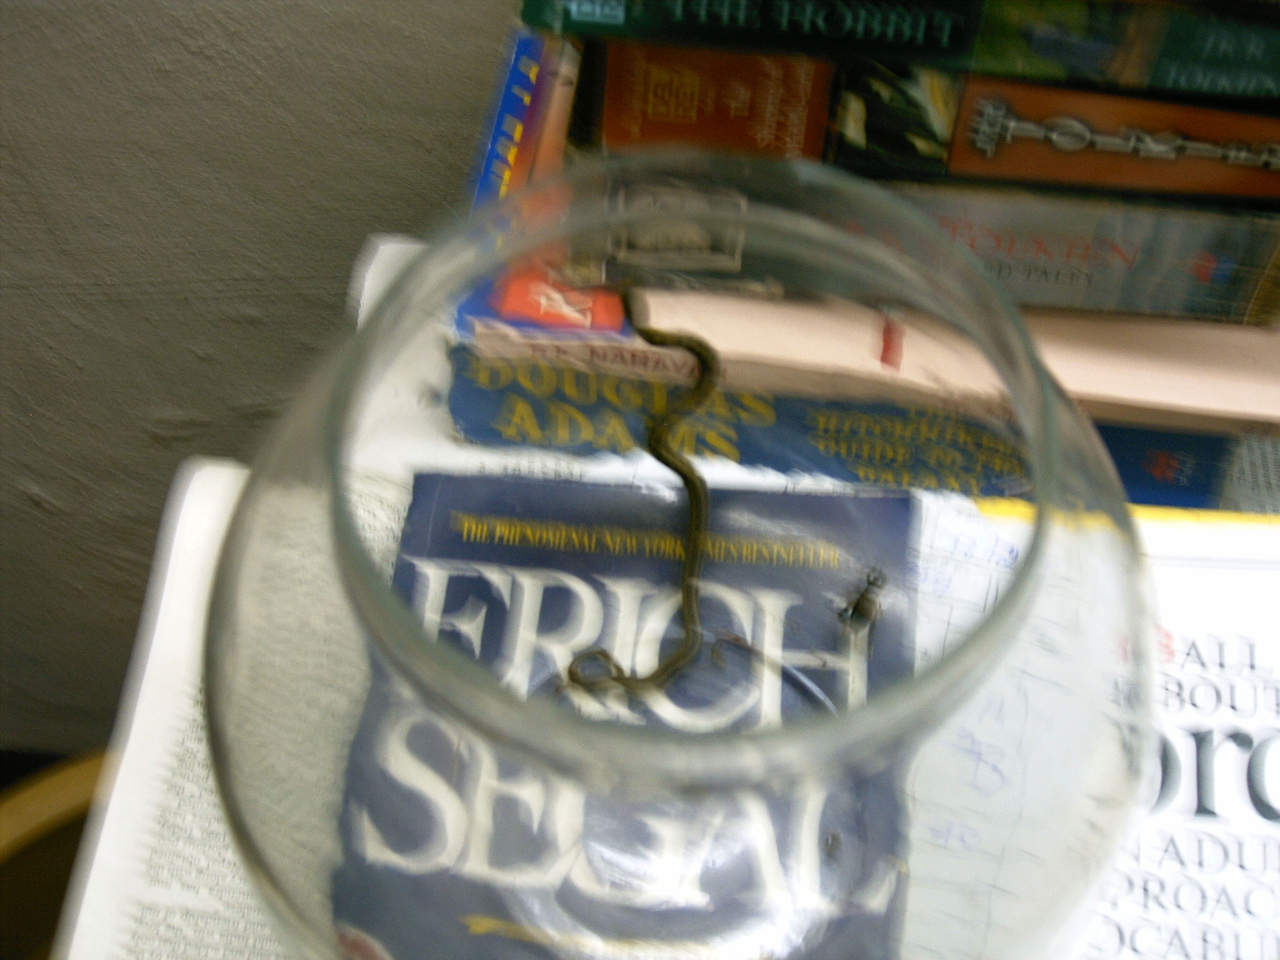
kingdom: Animalia
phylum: Chordata
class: Squamata
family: Colubridae
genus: Amphiesma
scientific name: Amphiesma stolatum
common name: Buff striped keelback
